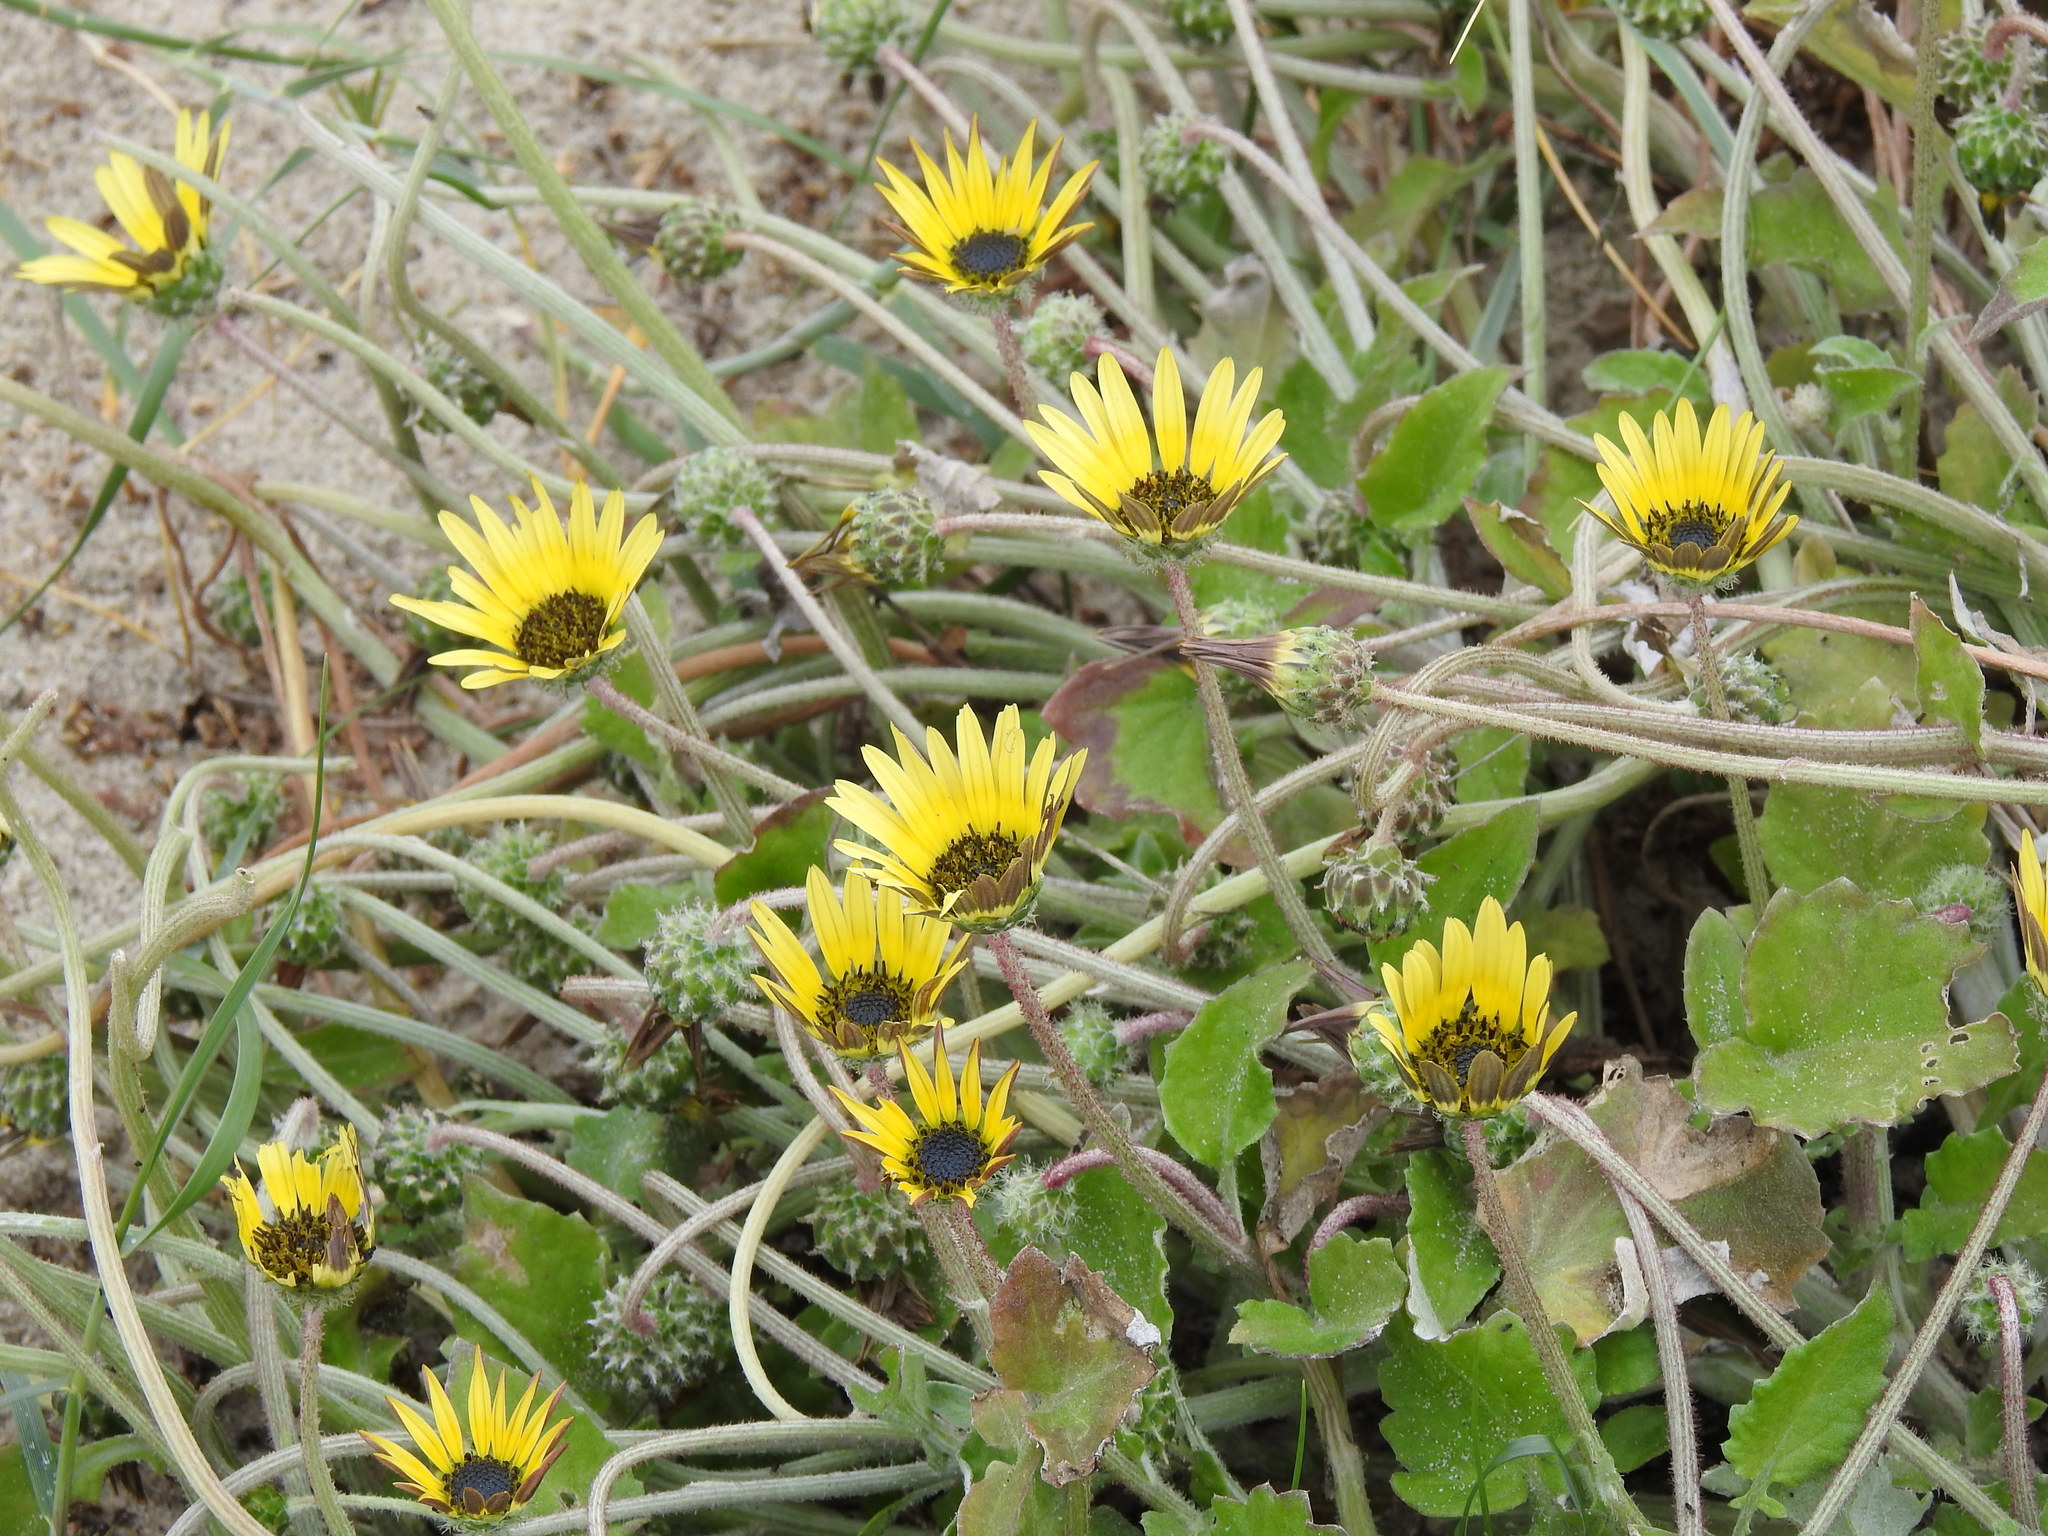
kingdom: Plantae
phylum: Tracheophyta
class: Magnoliopsida
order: Asterales
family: Asteraceae
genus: Arctotheca
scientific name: Arctotheca calendula
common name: Capeweed
